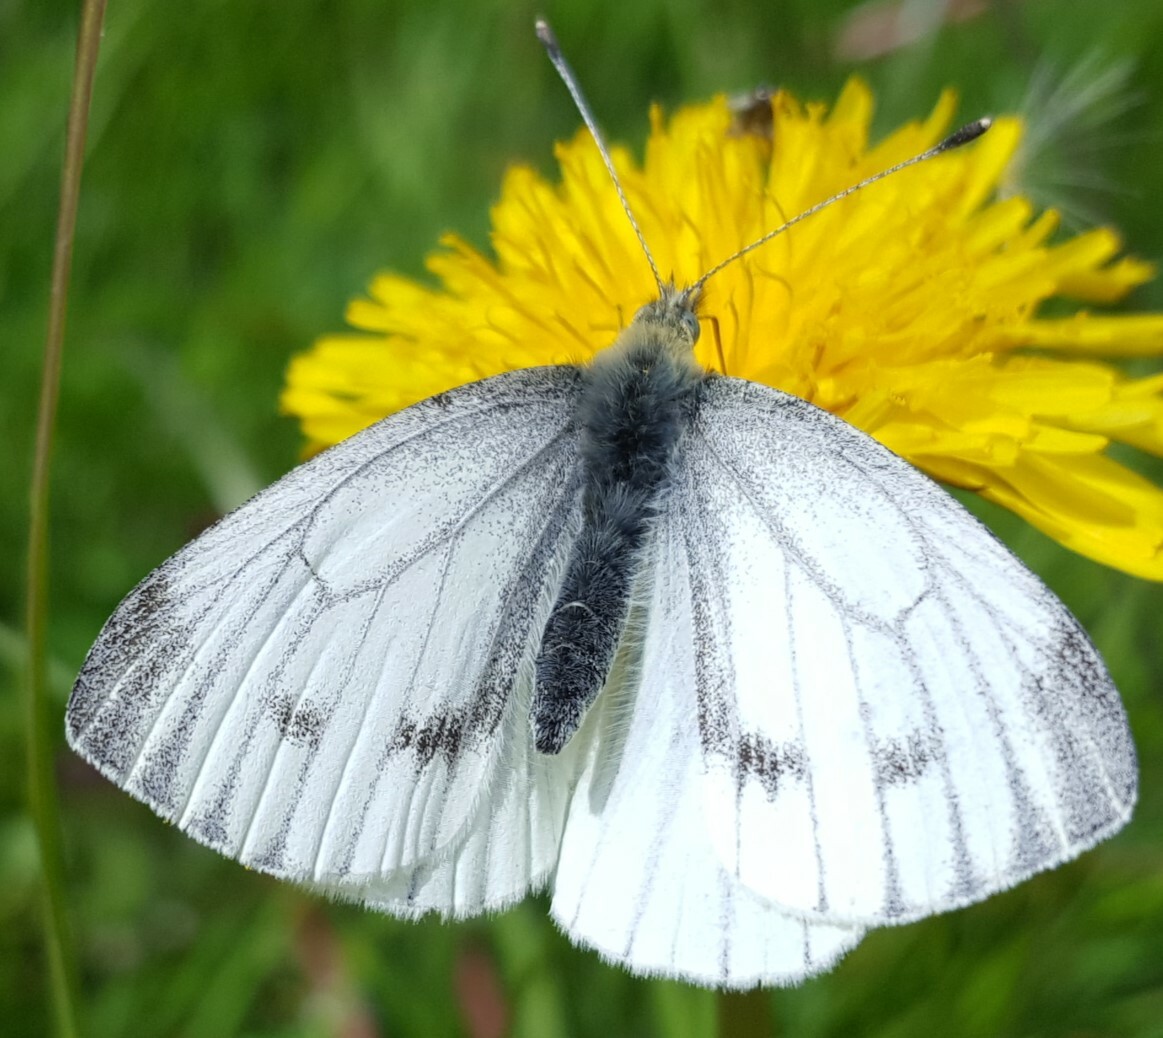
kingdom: Animalia
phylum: Arthropoda
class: Insecta
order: Lepidoptera
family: Pieridae
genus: Pieris
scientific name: Pieris napi
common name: Green-veined white
